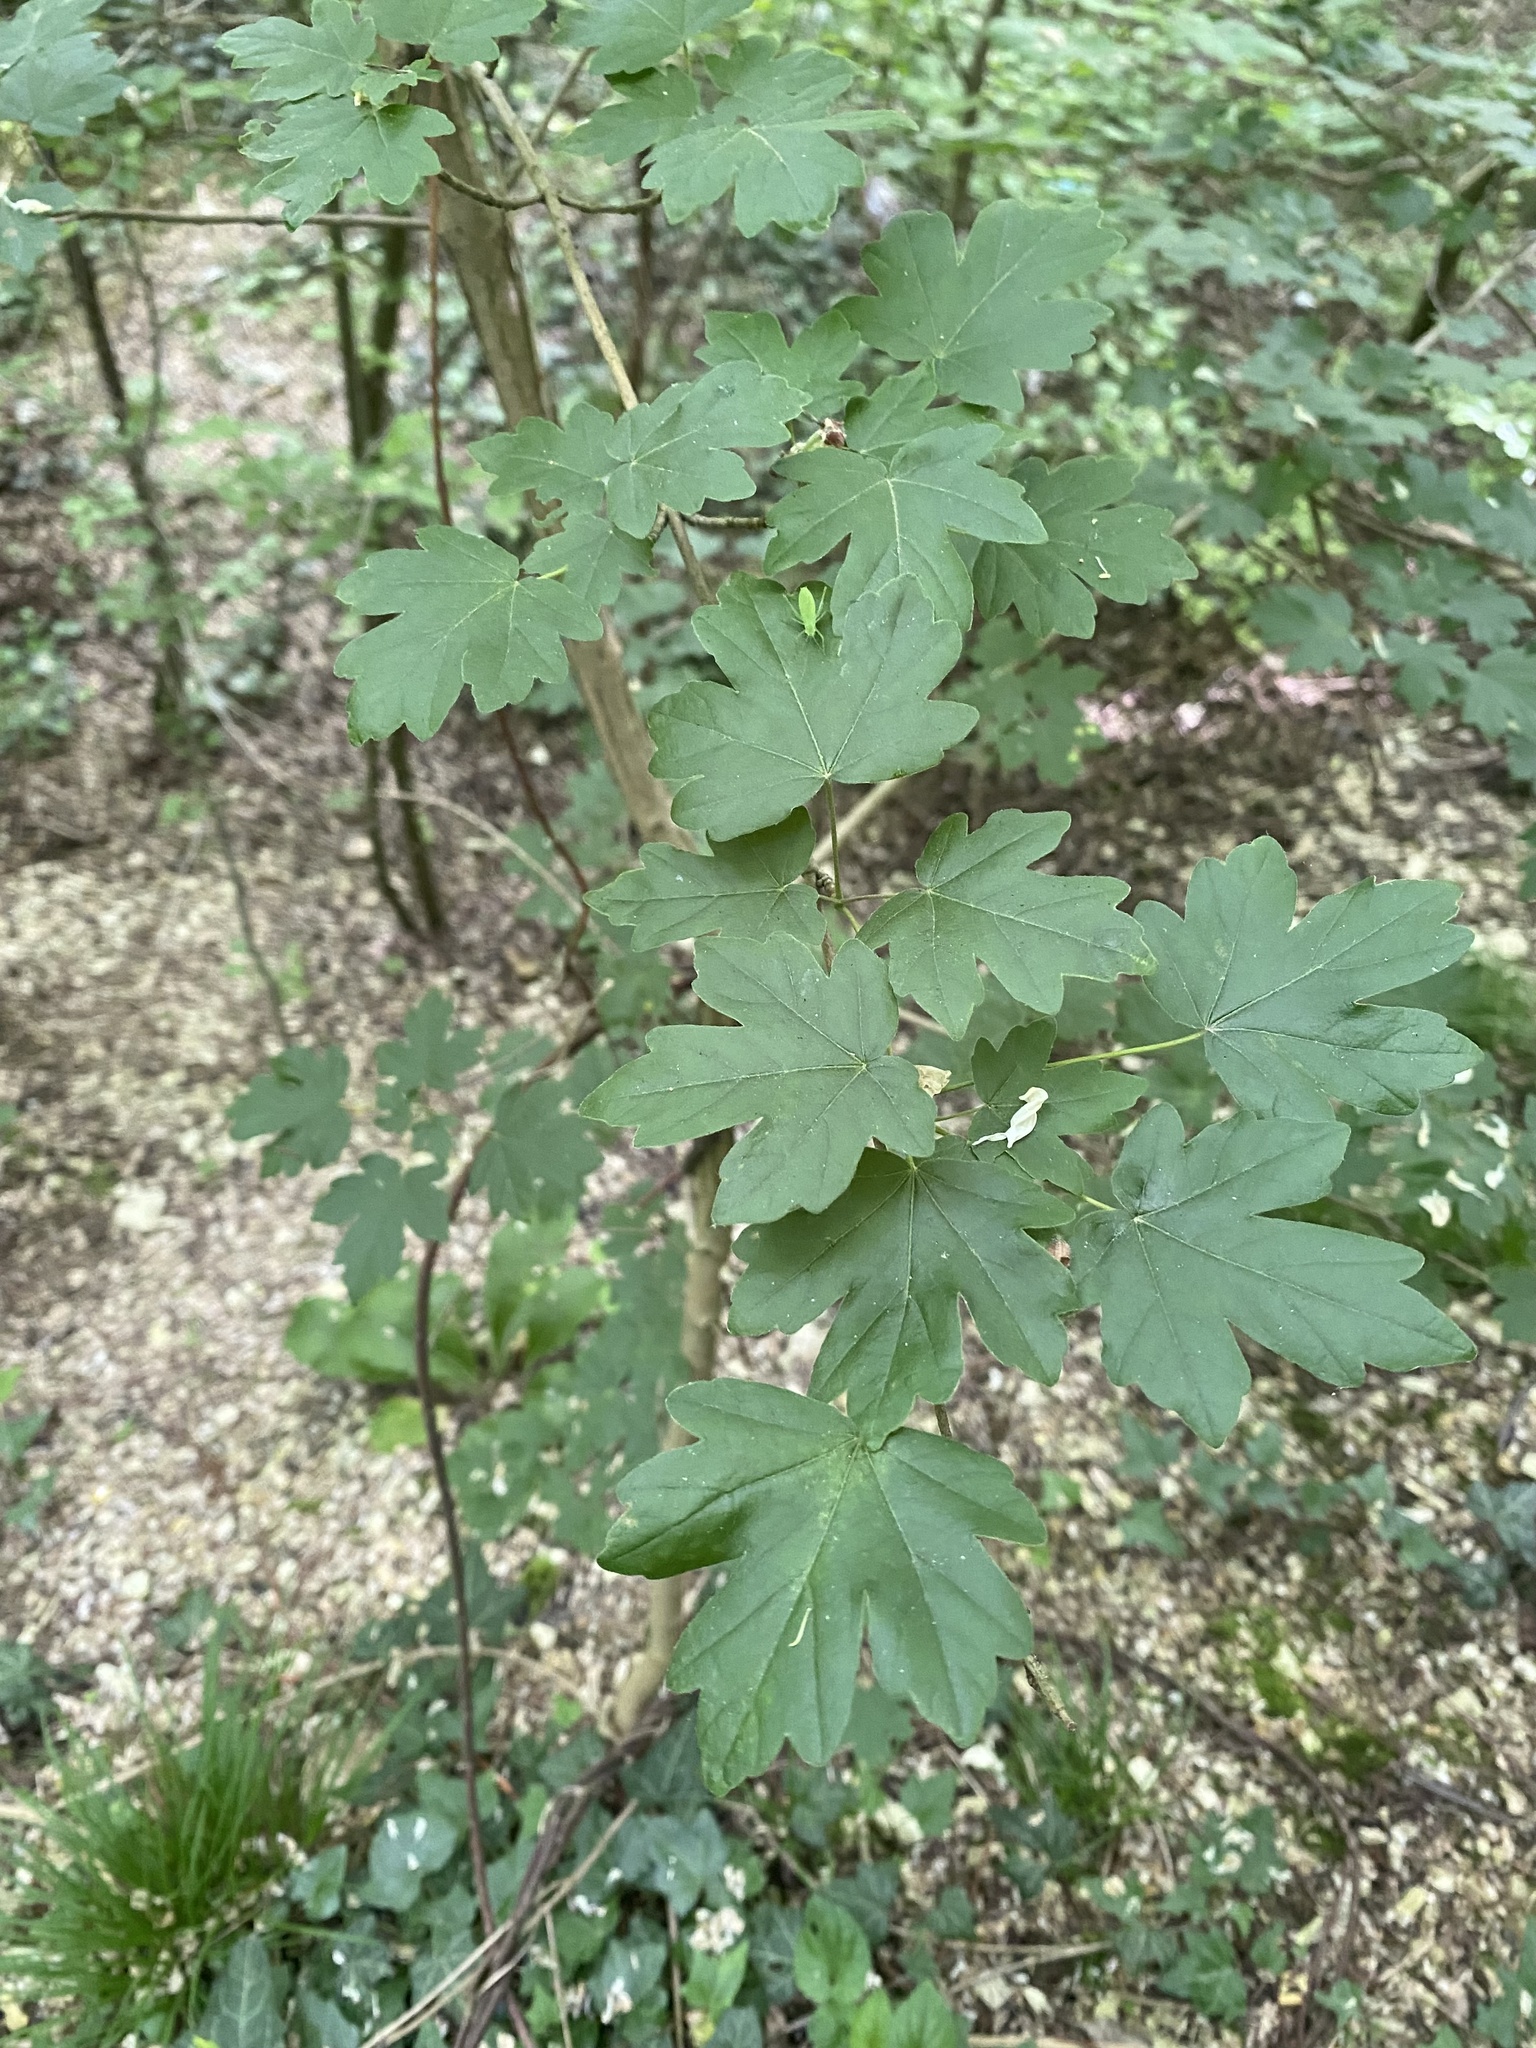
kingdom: Plantae
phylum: Tracheophyta
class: Magnoliopsida
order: Sapindales
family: Sapindaceae
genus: Acer
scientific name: Acer campestre
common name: Field maple
